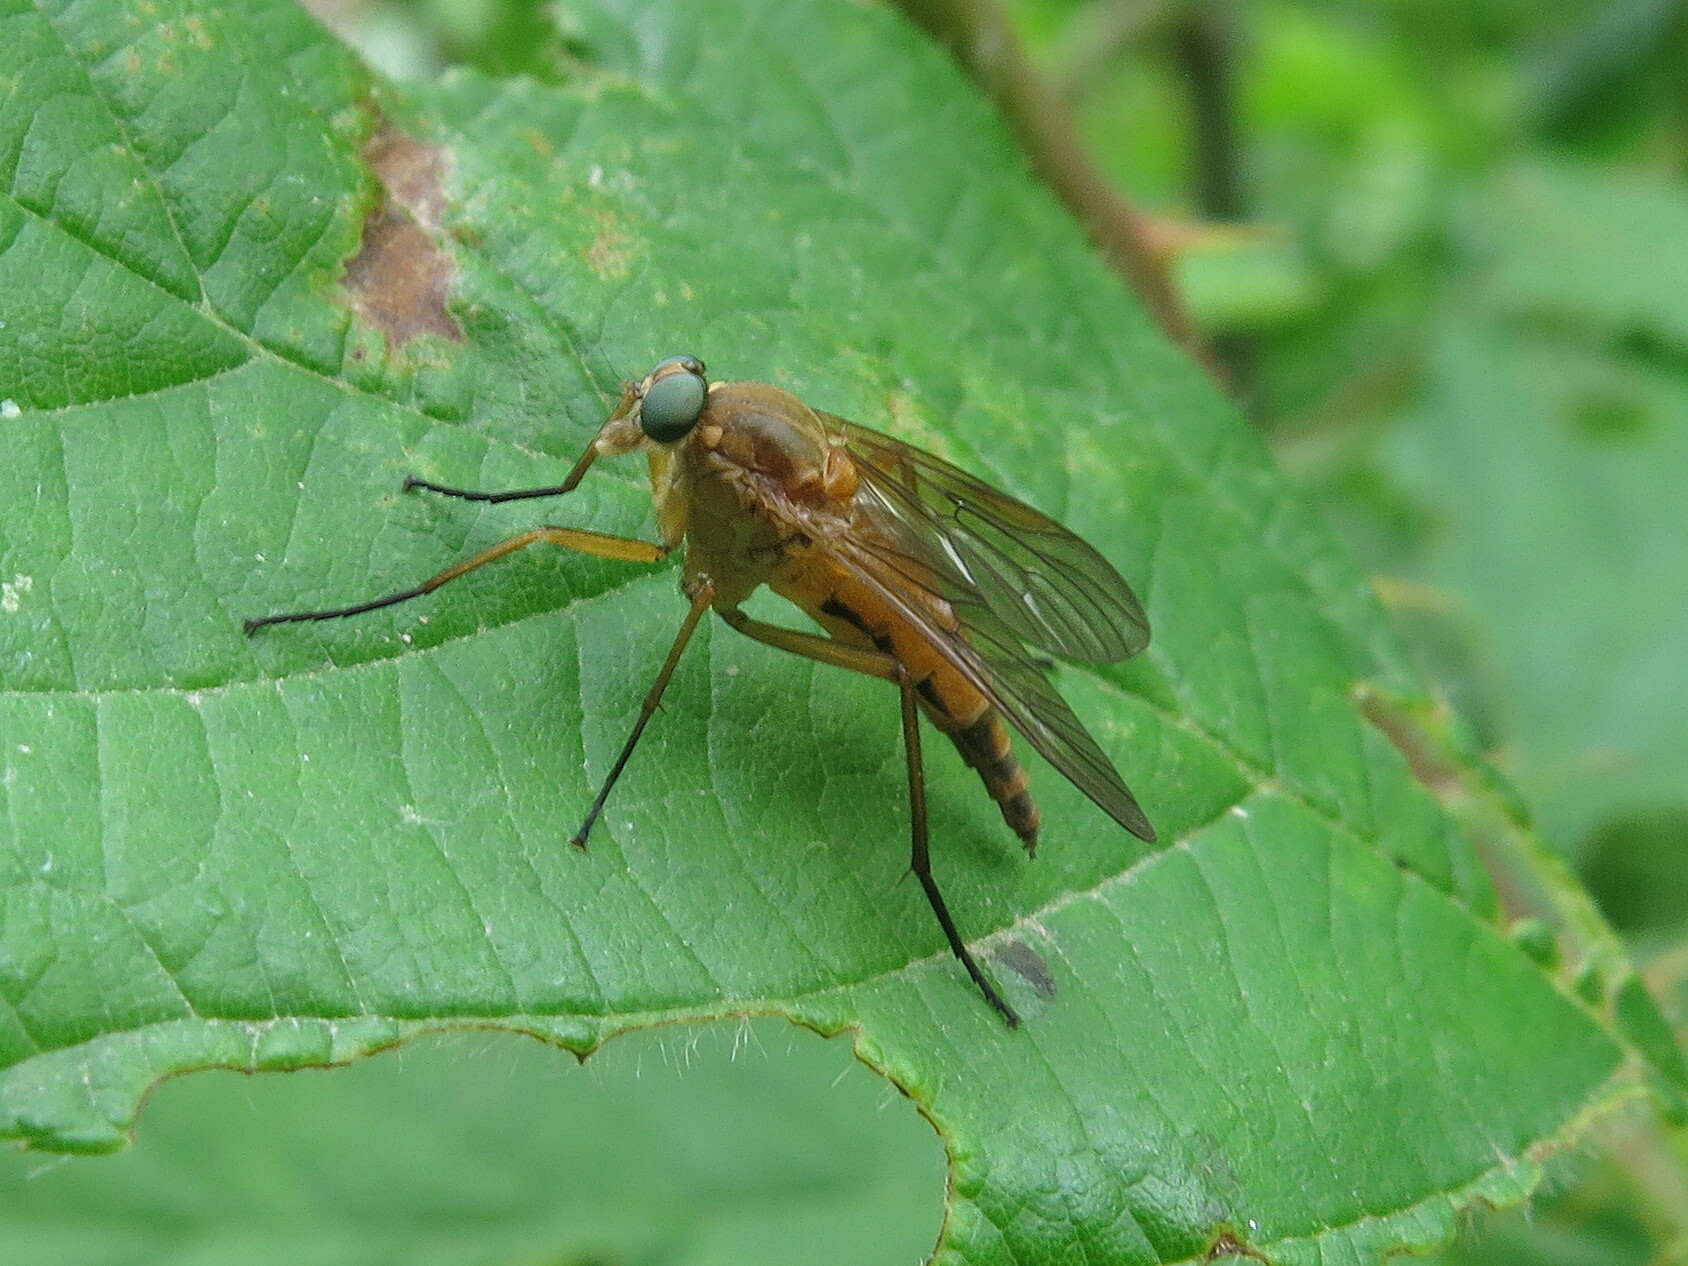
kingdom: Animalia
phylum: Arthropoda
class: Insecta
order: Diptera
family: Rhagionidae
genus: Rhagio
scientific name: Rhagio tringaria
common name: Marsh snipefly
